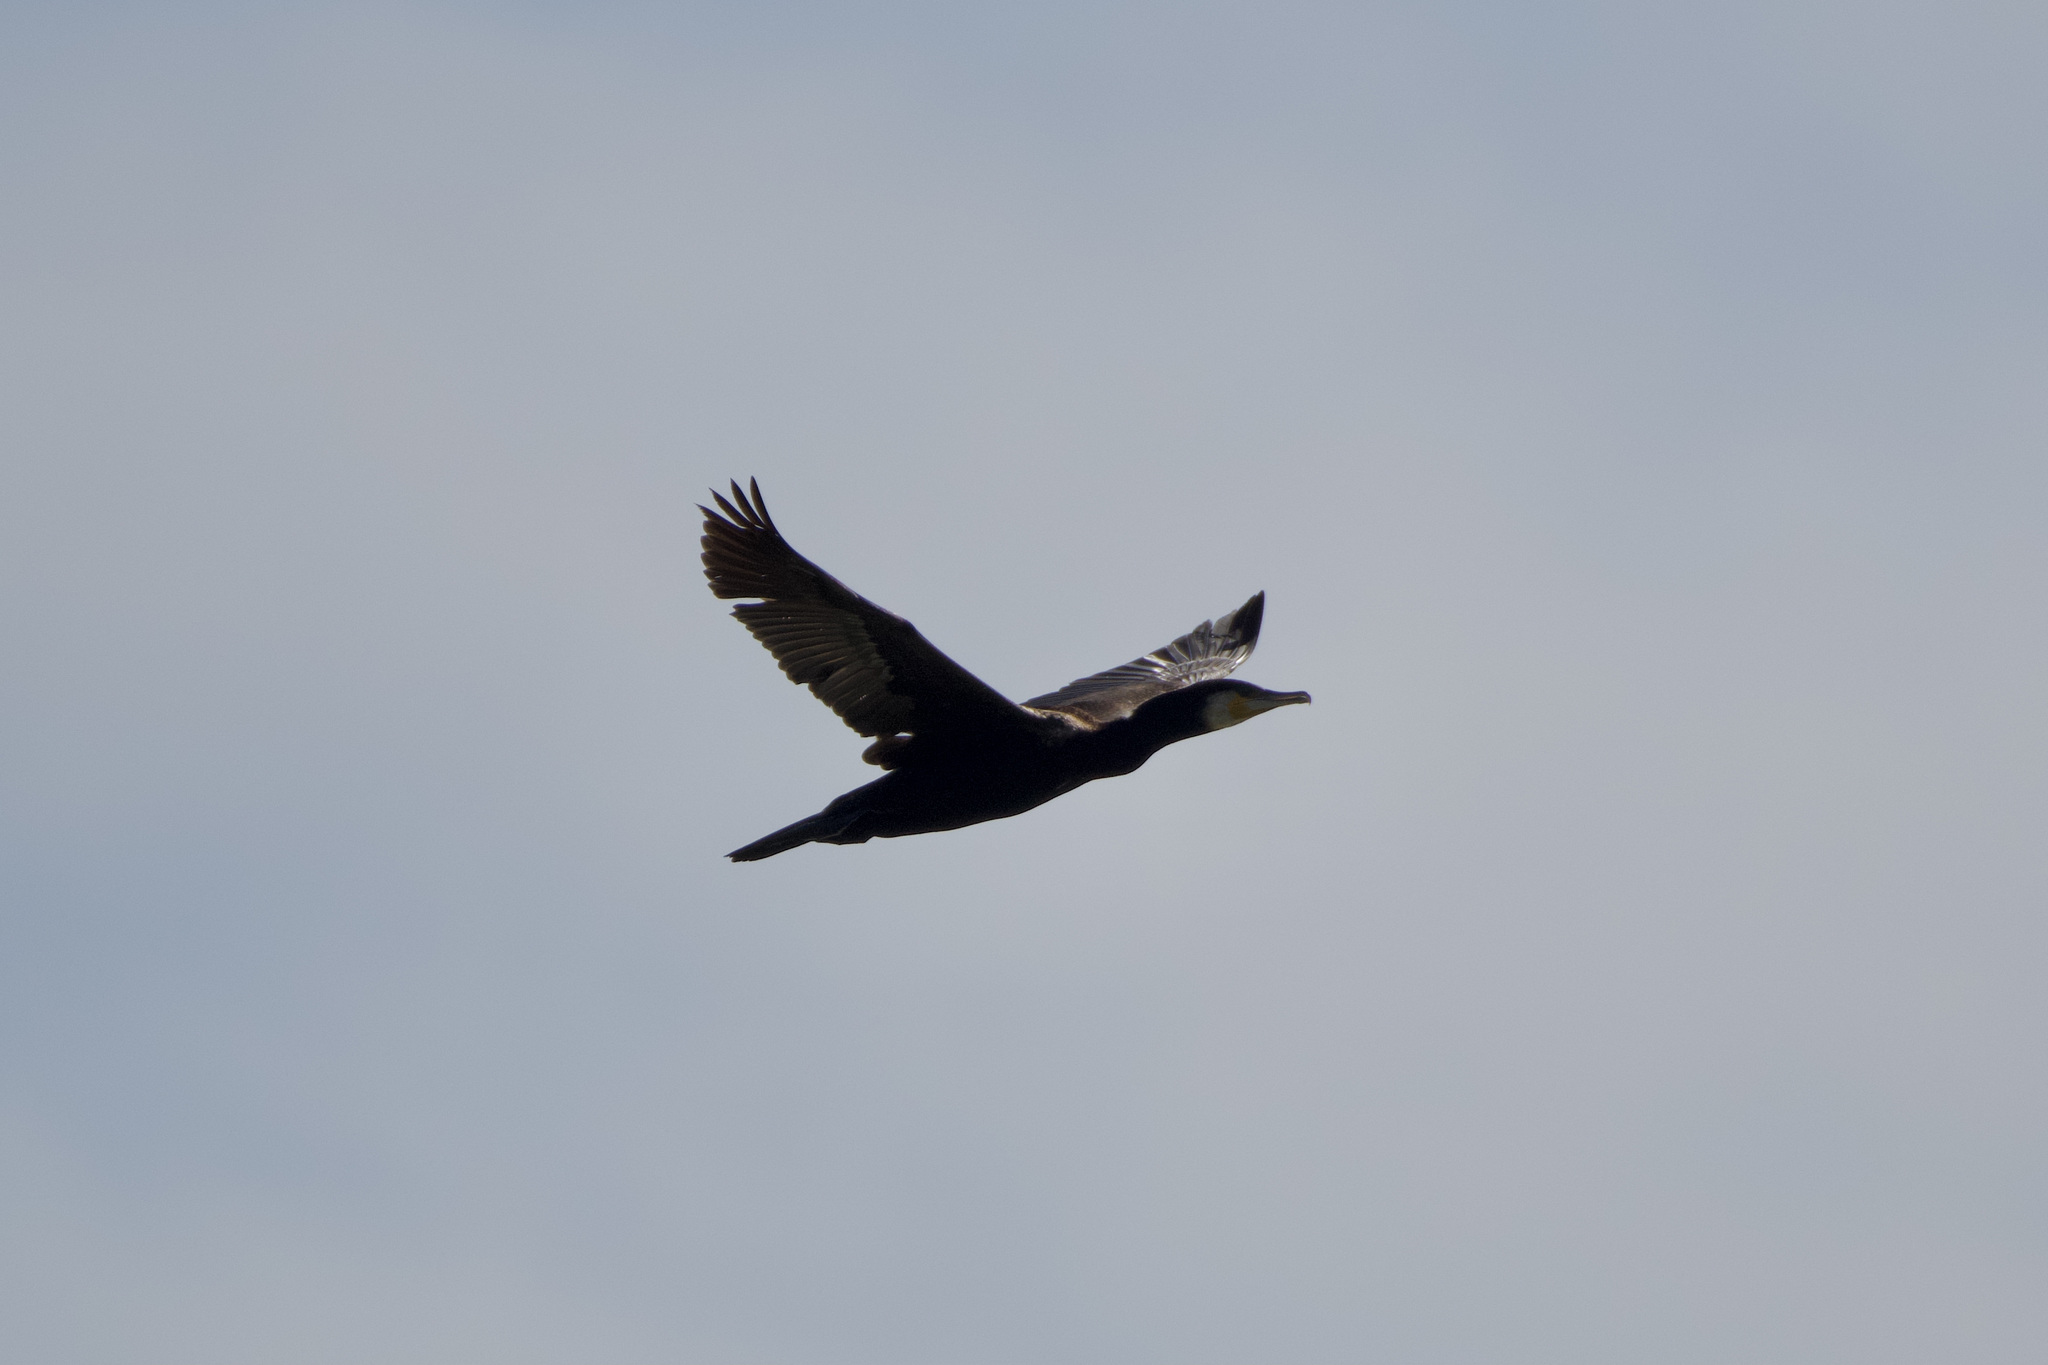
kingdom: Animalia
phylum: Chordata
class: Aves
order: Suliformes
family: Phalacrocoracidae
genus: Phalacrocorax
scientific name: Phalacrocorax carbo
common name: Great cormorant
